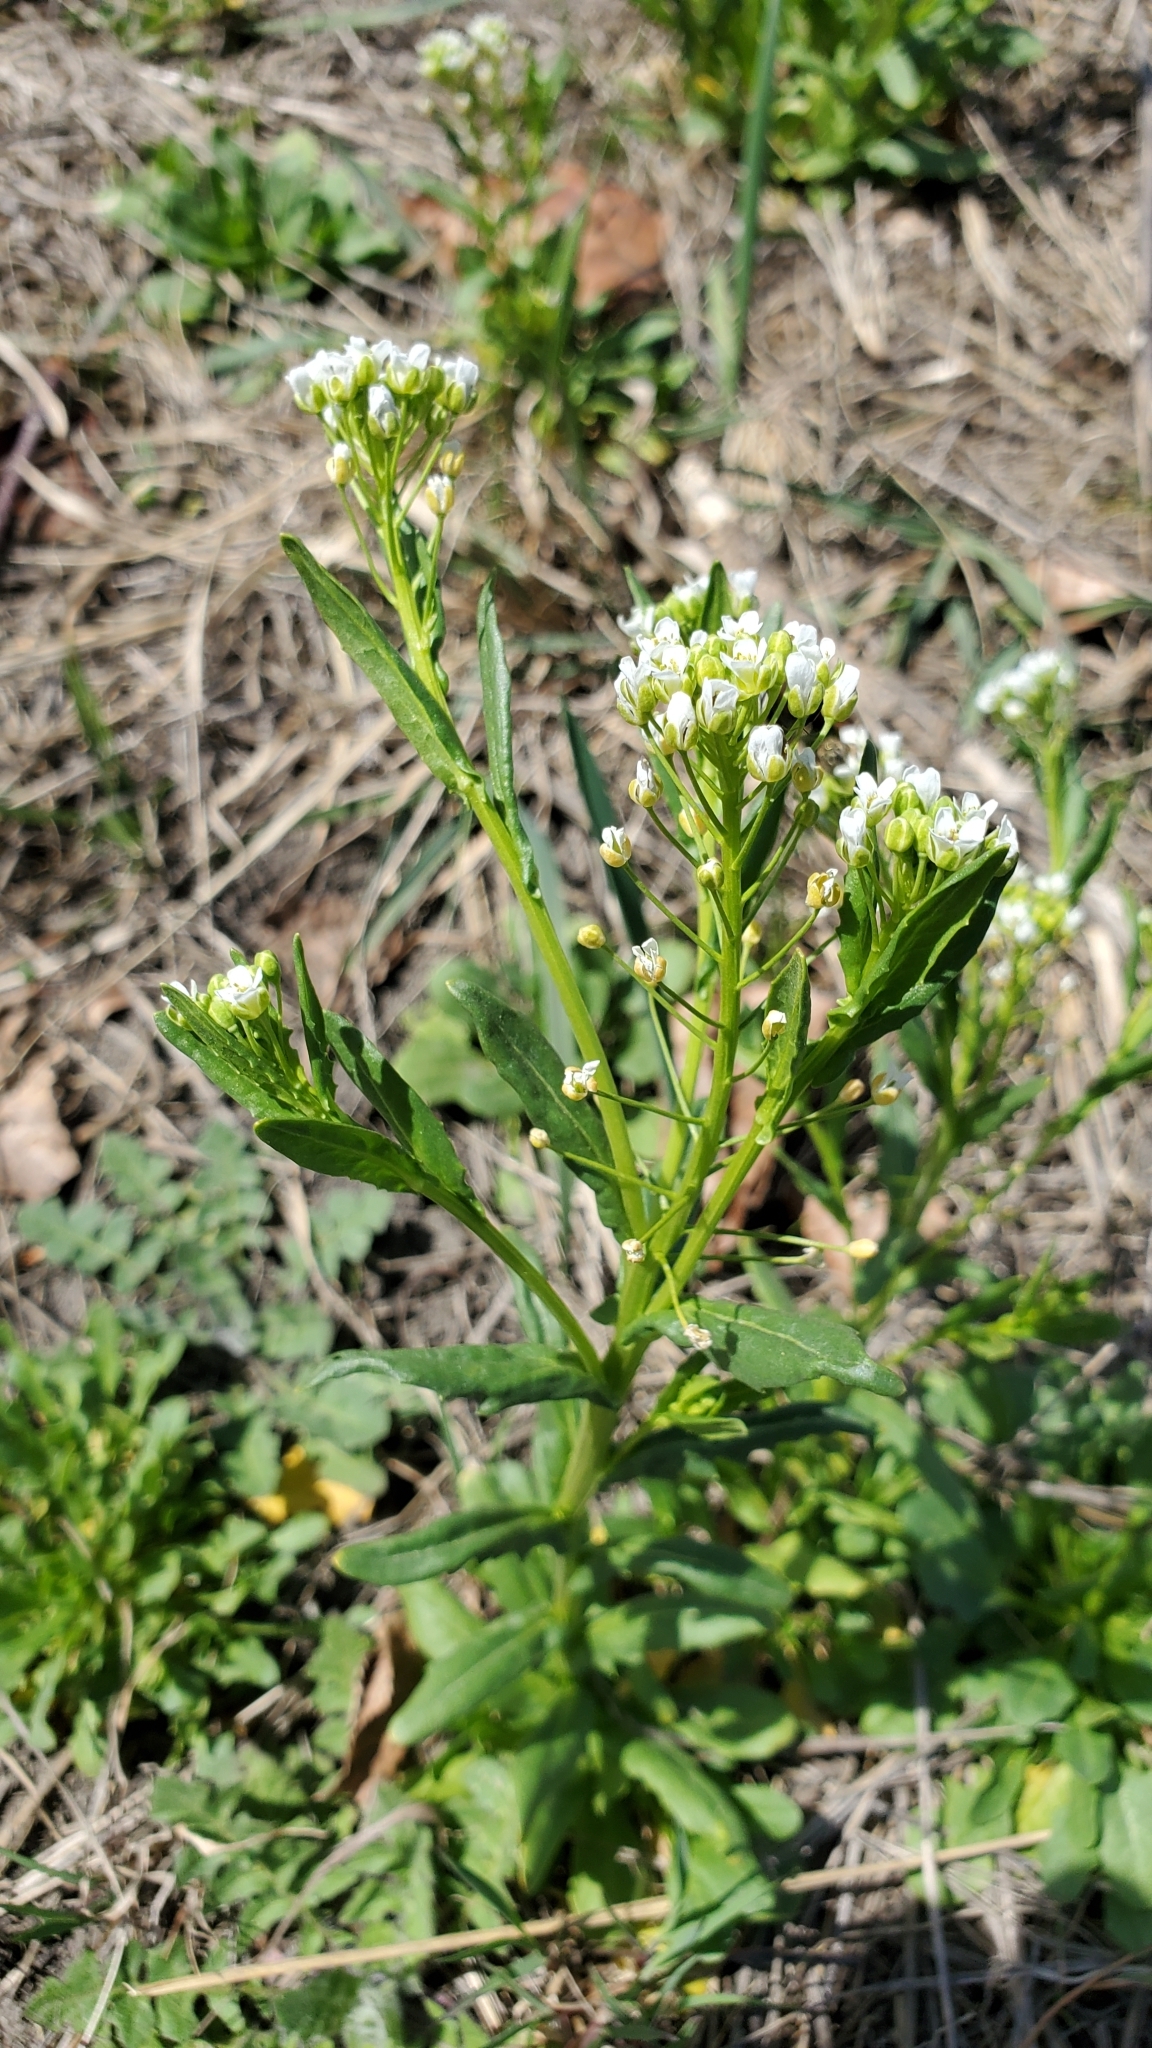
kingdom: Plantae
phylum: Tracheophyta
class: Magnoliopsida
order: Brassicales
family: Brassicaceae
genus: Thlaspi
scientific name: Thlaspi arvense
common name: Field pennycress
